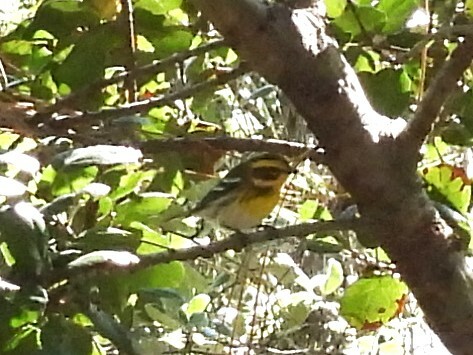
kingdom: Animalia
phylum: Chordata
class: Aves
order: Passeriformes
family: Parulidae
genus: Setophaga
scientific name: Setophaga townsendi
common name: Townsend's warbler
